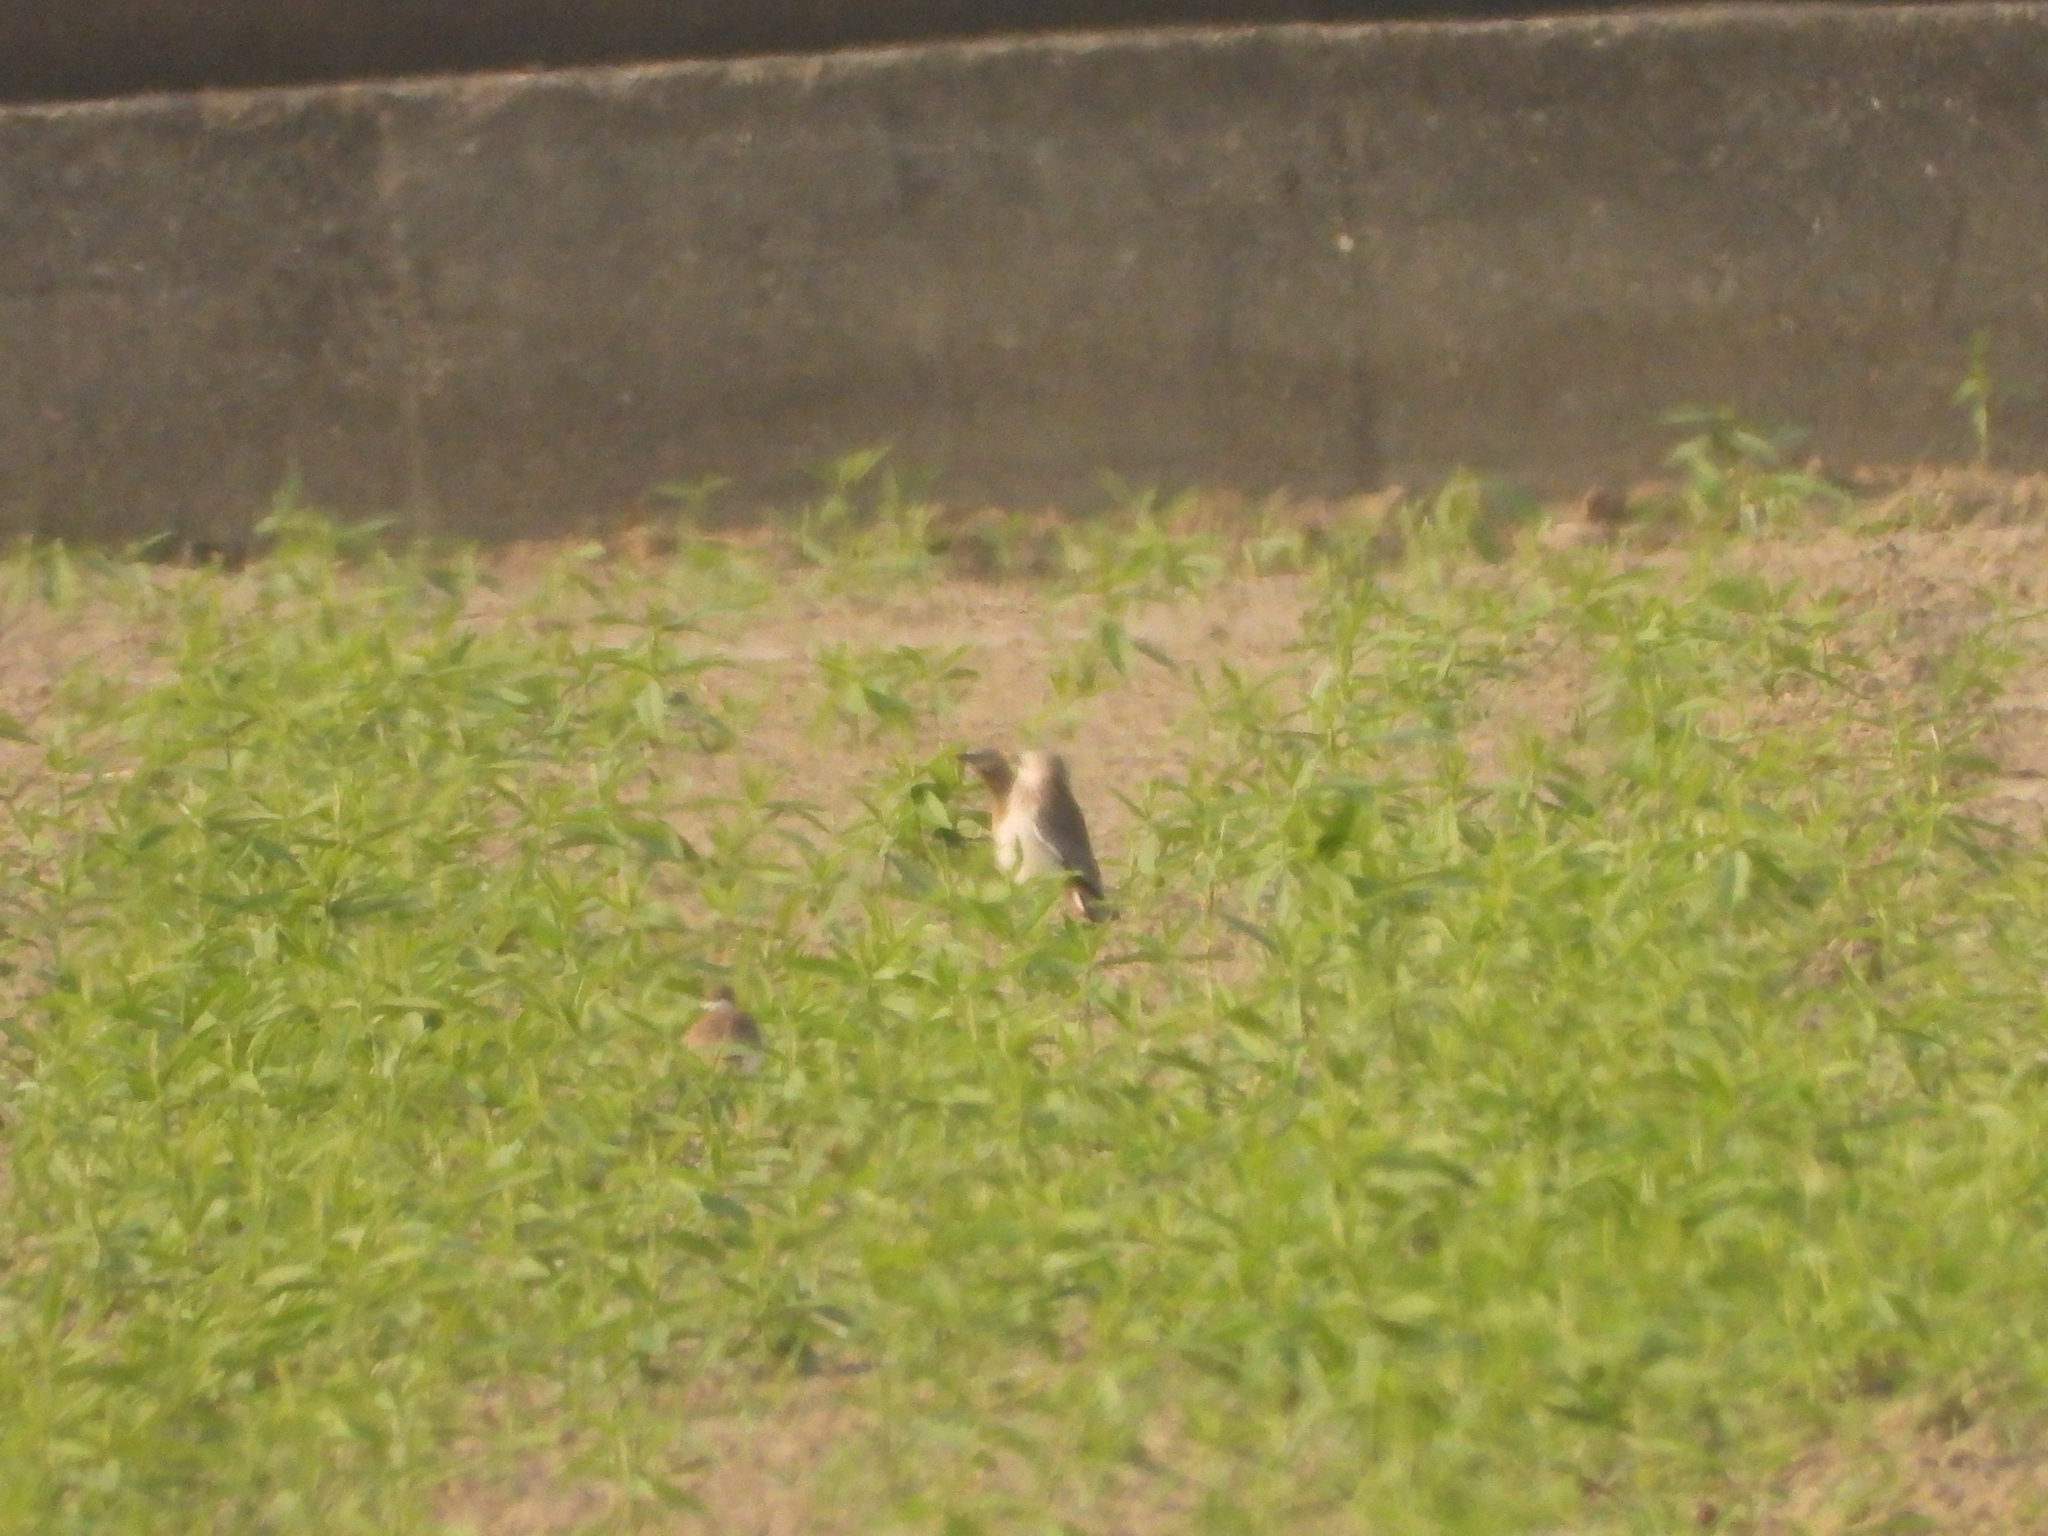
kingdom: Animalia
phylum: Chordata
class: Aves
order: Passeriformes
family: Sturnidae
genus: Sturnia
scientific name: Sturnia malabarica
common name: Chestnut-tailed starling
